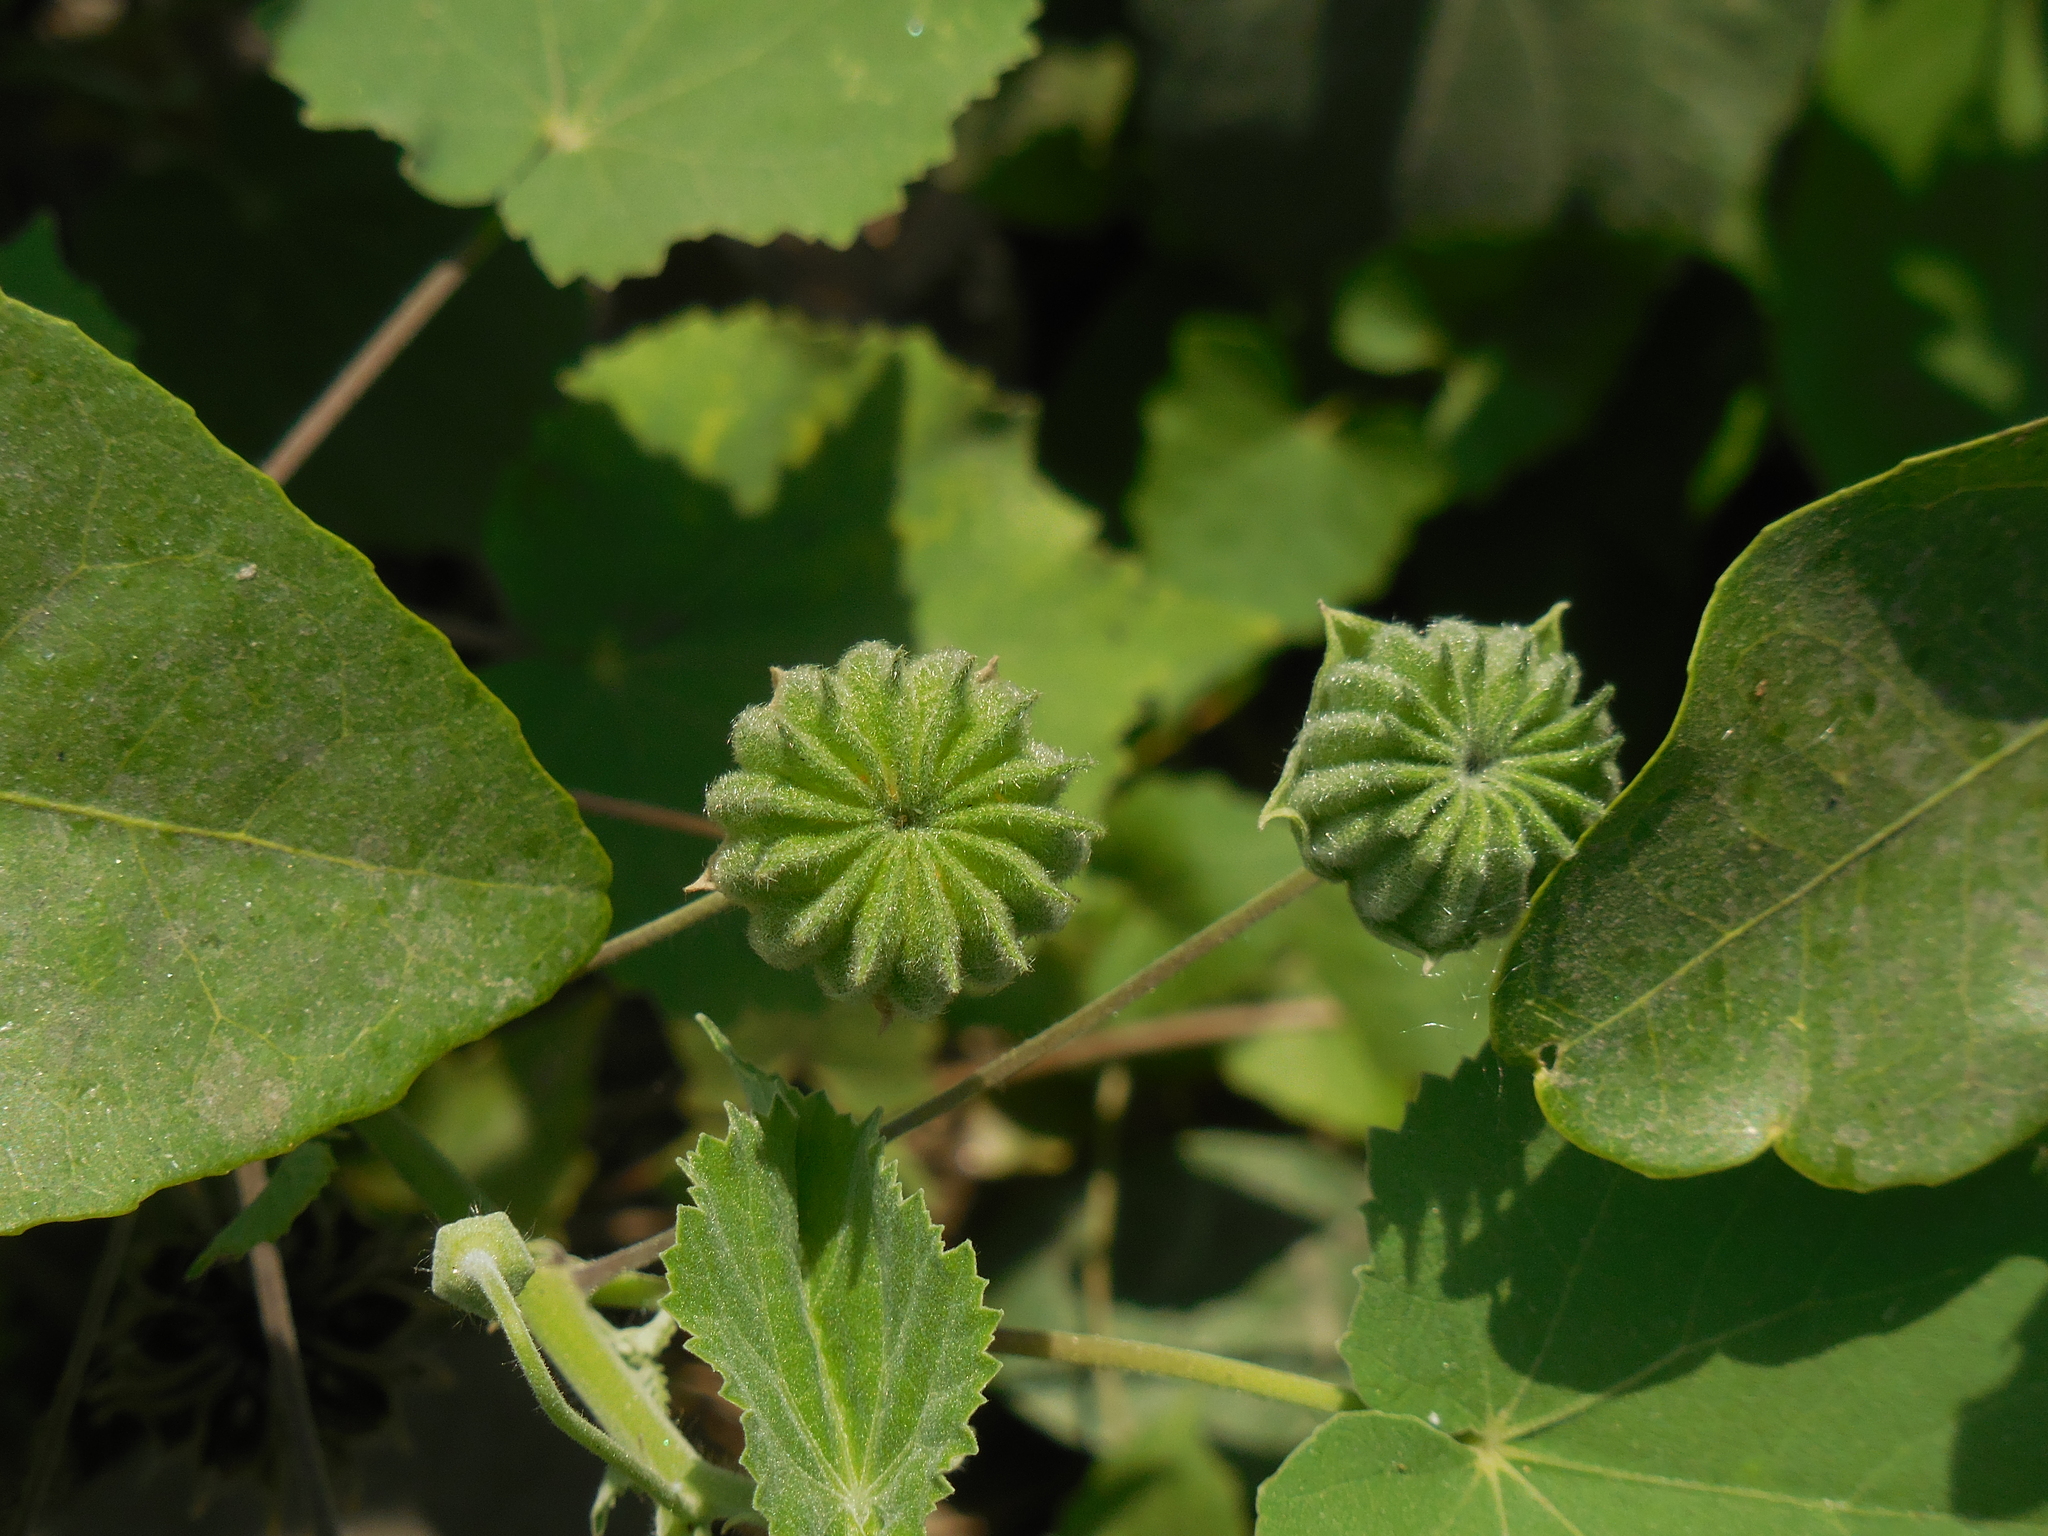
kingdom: Plantae
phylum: Tracheophyta
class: Magnoliopsida
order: Malvales
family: Malvaceae
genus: Abutilon
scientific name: Abutilon indicum
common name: Indian abutilon
